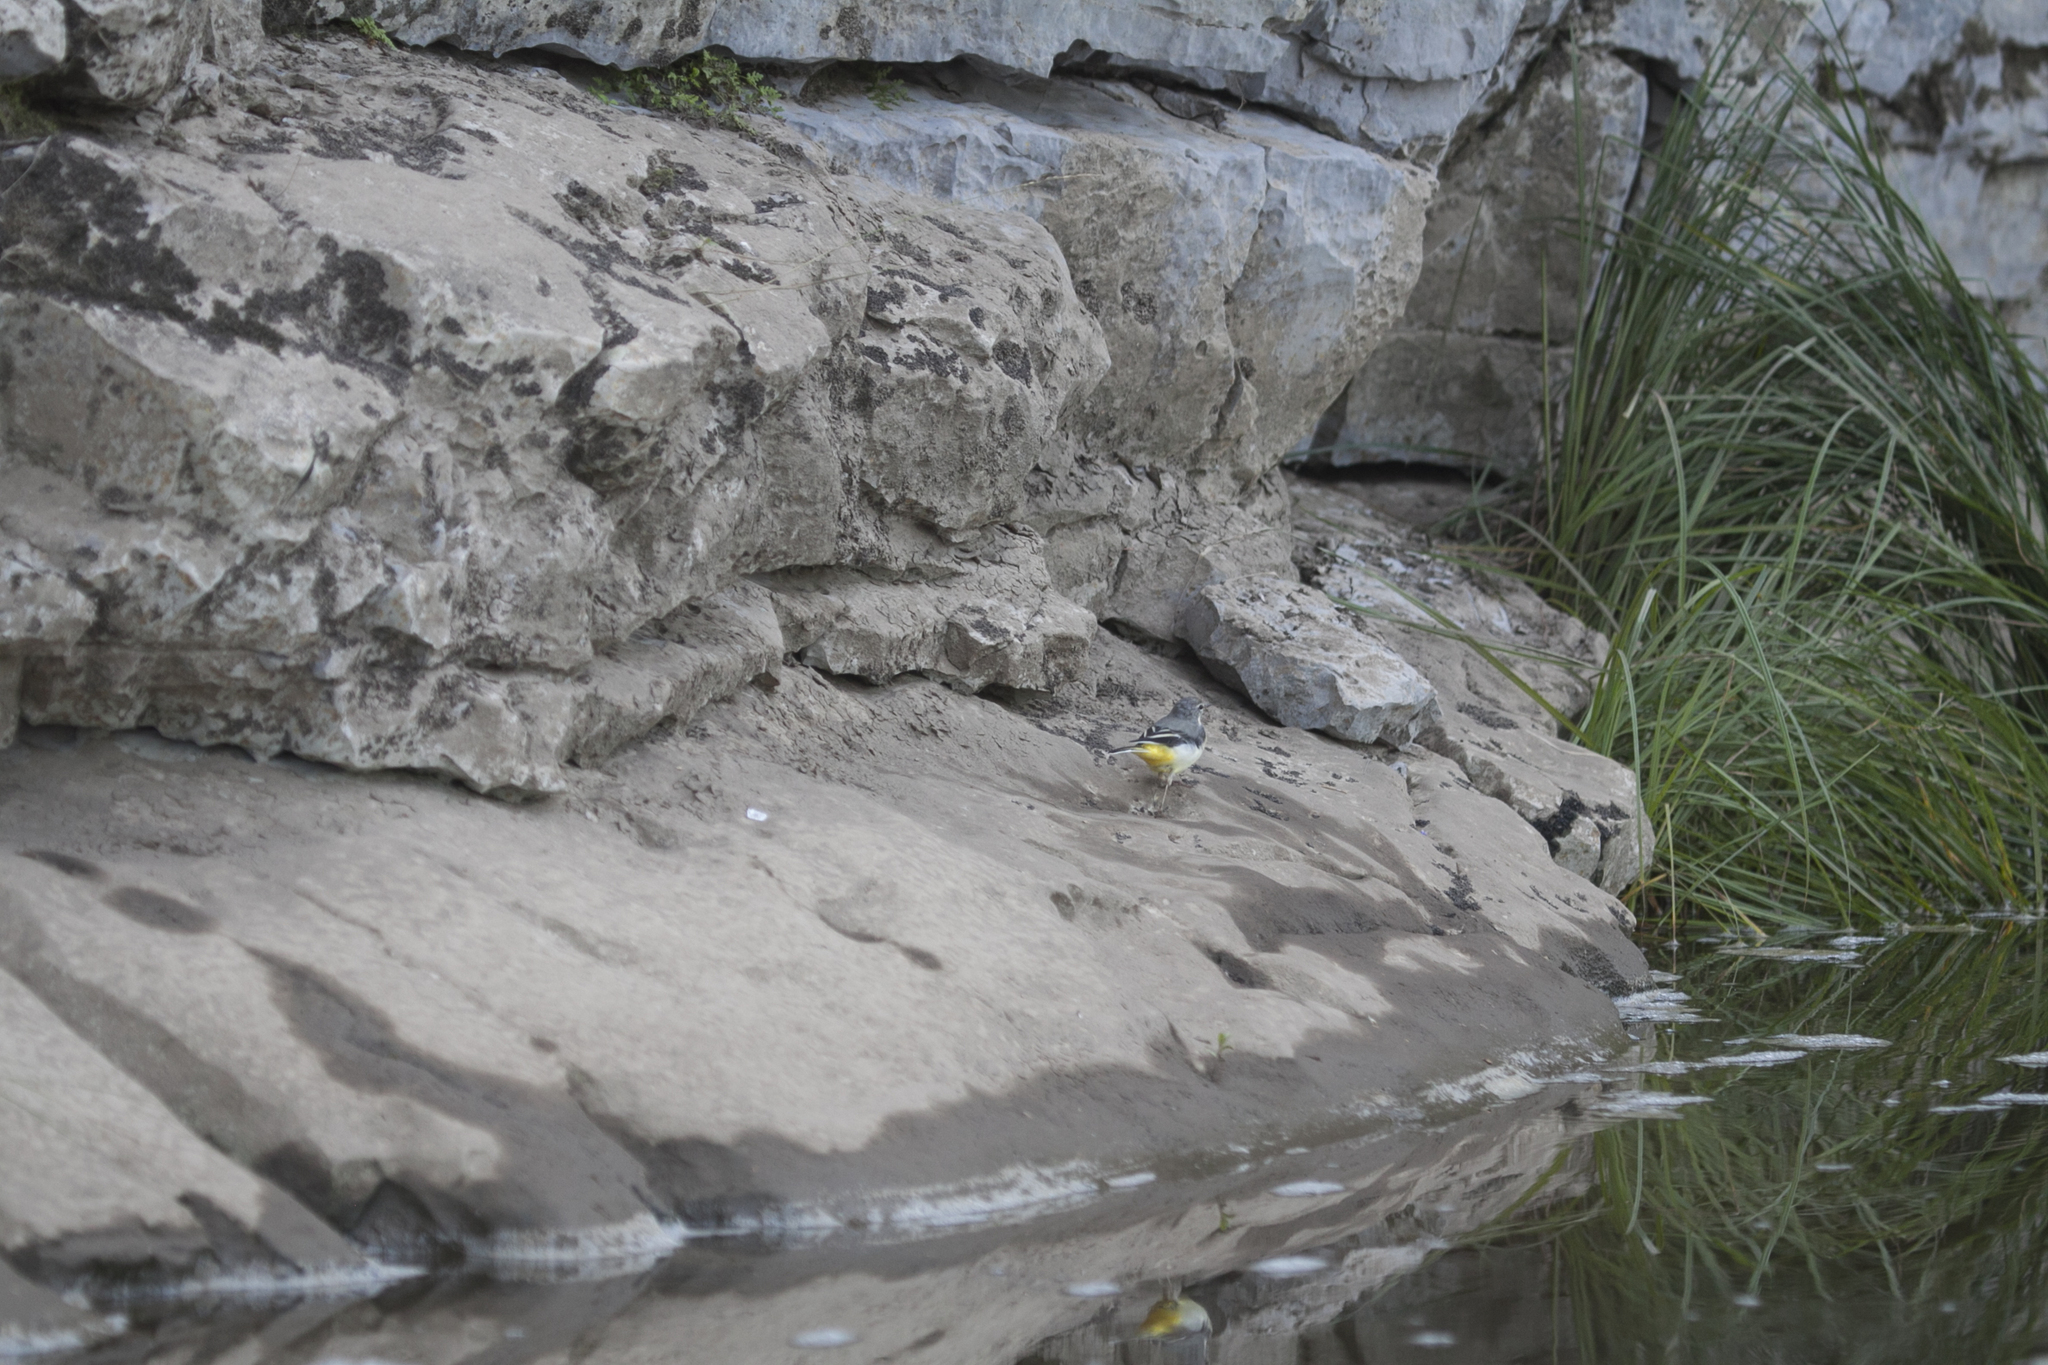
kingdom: Animalia
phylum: Chordata
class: Aves
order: Passeriformes
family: Motacillidae
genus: Motacilla
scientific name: Motacilla cinerea
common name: Grey wagtail
